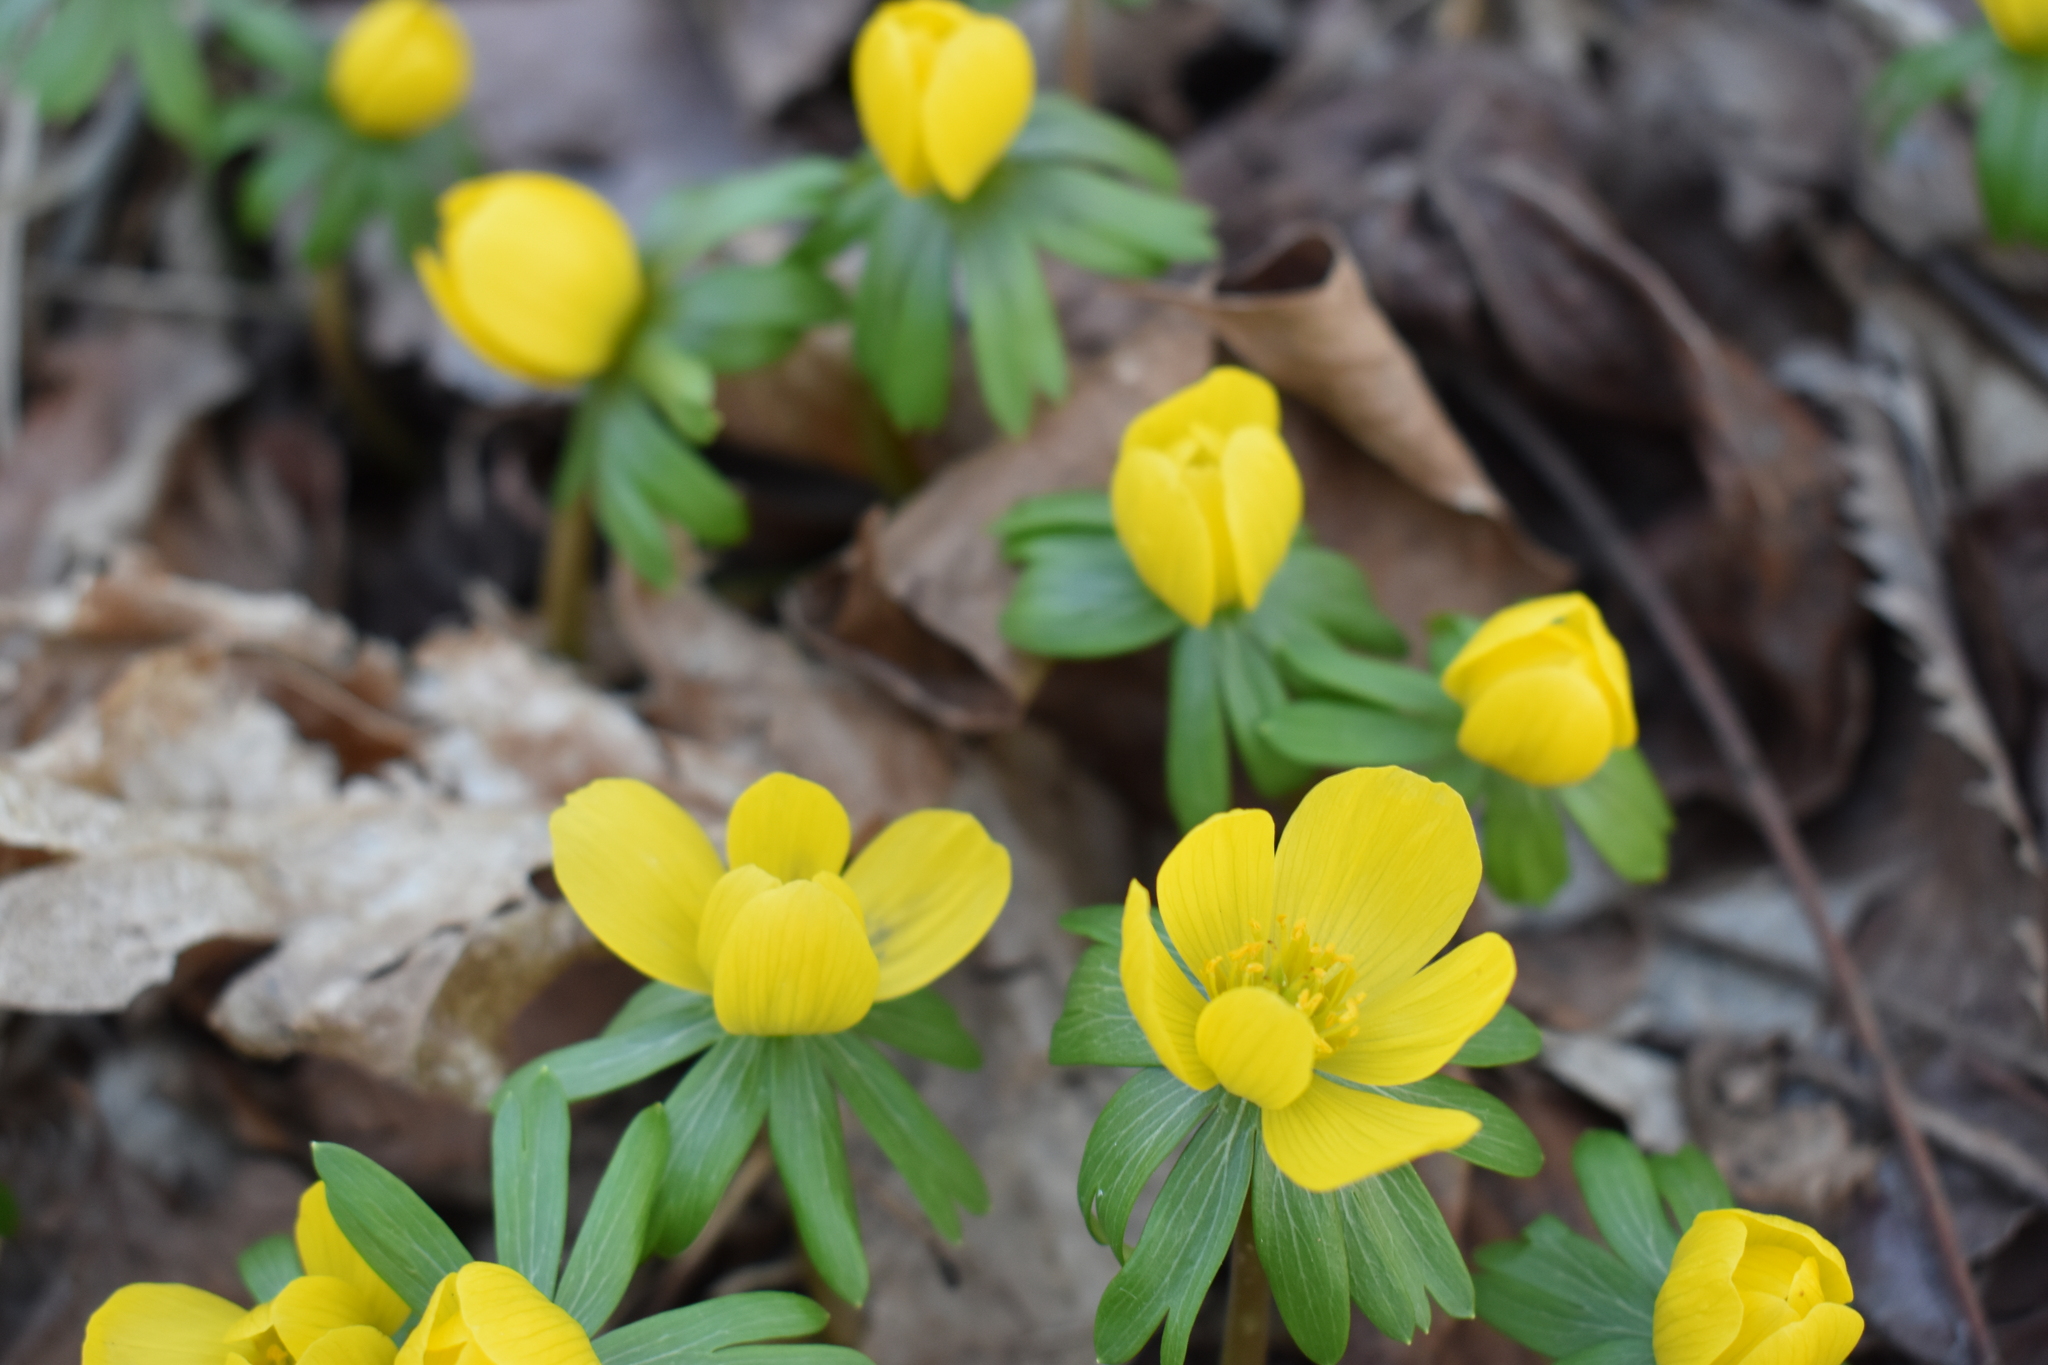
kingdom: Plantae
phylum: Tracheophyta
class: Magnoliopsida
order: Ranunculales
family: Ranunculaceae
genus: Eranthis
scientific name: Eranthis hyemalis
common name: Winter aconite
